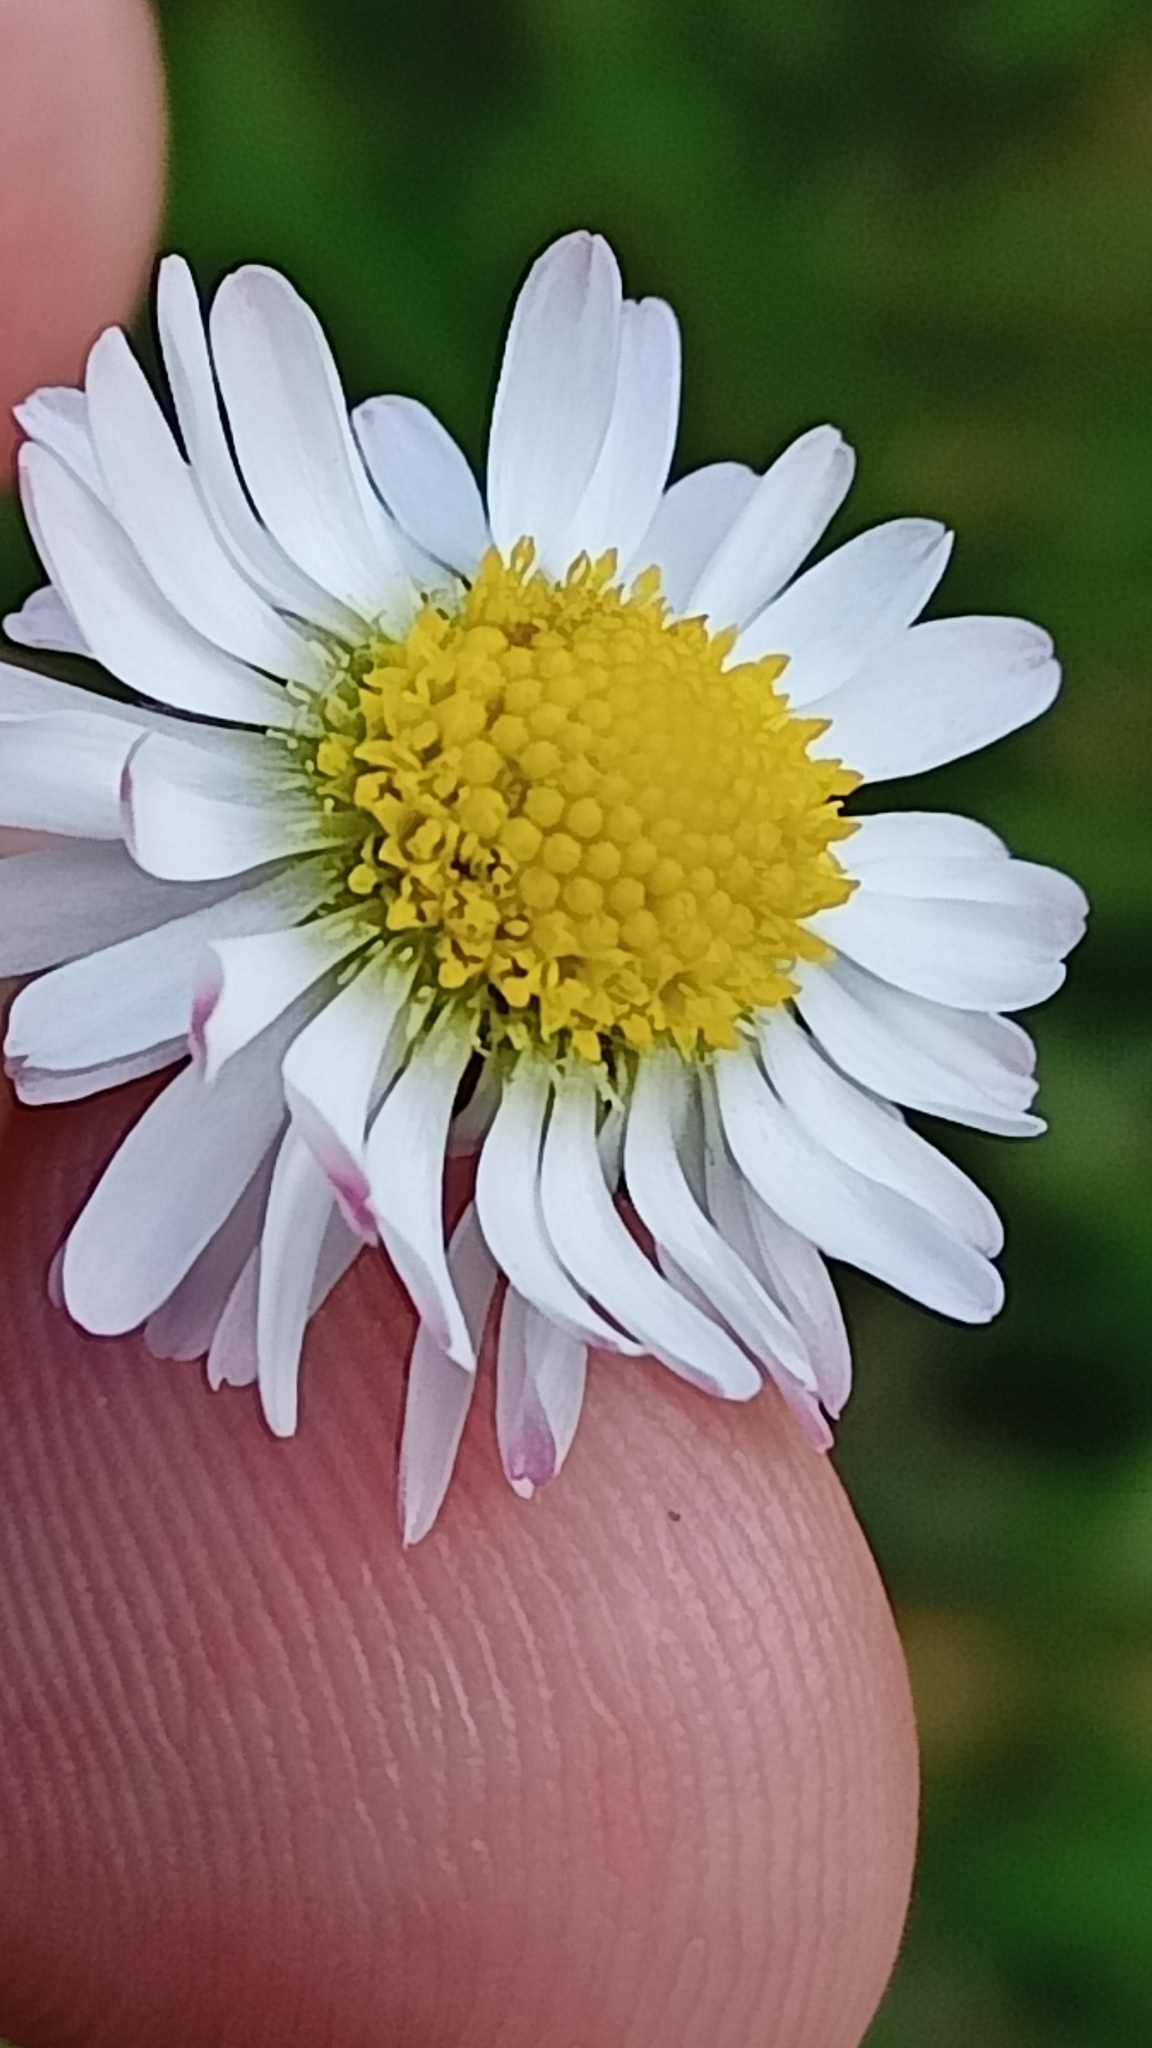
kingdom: Plantae
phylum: Tracheophyta
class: Magnoliopsida
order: Asterales
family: Asteraceae
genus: Bellis
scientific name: Bellis perennis
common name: Lawndaisy
